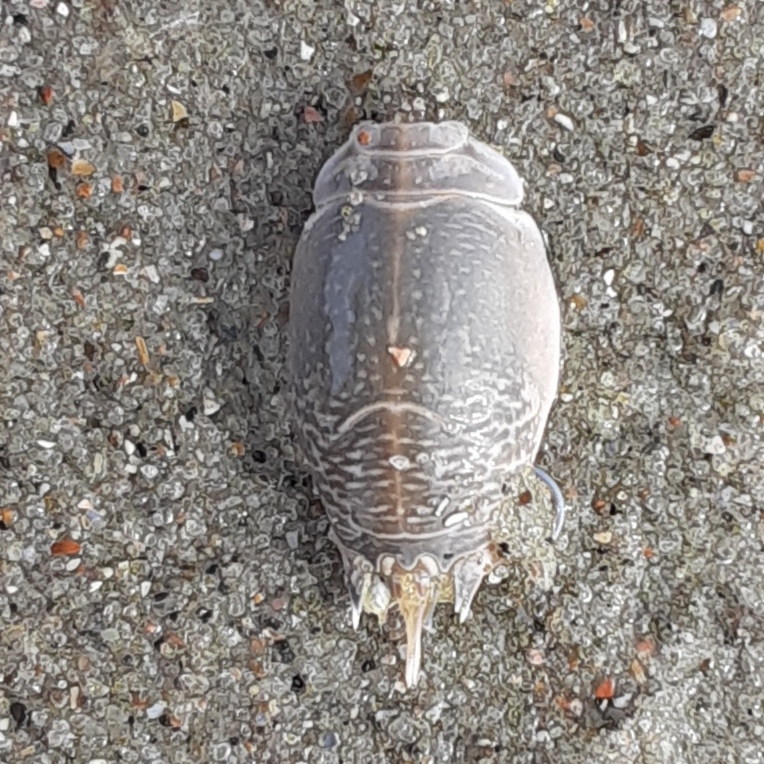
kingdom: Animalia
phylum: Arthropoda
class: Malacostraca
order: Decapoda
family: Hippidae
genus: Emerita
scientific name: Emerita talpoida
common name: Atlantic sand crab
